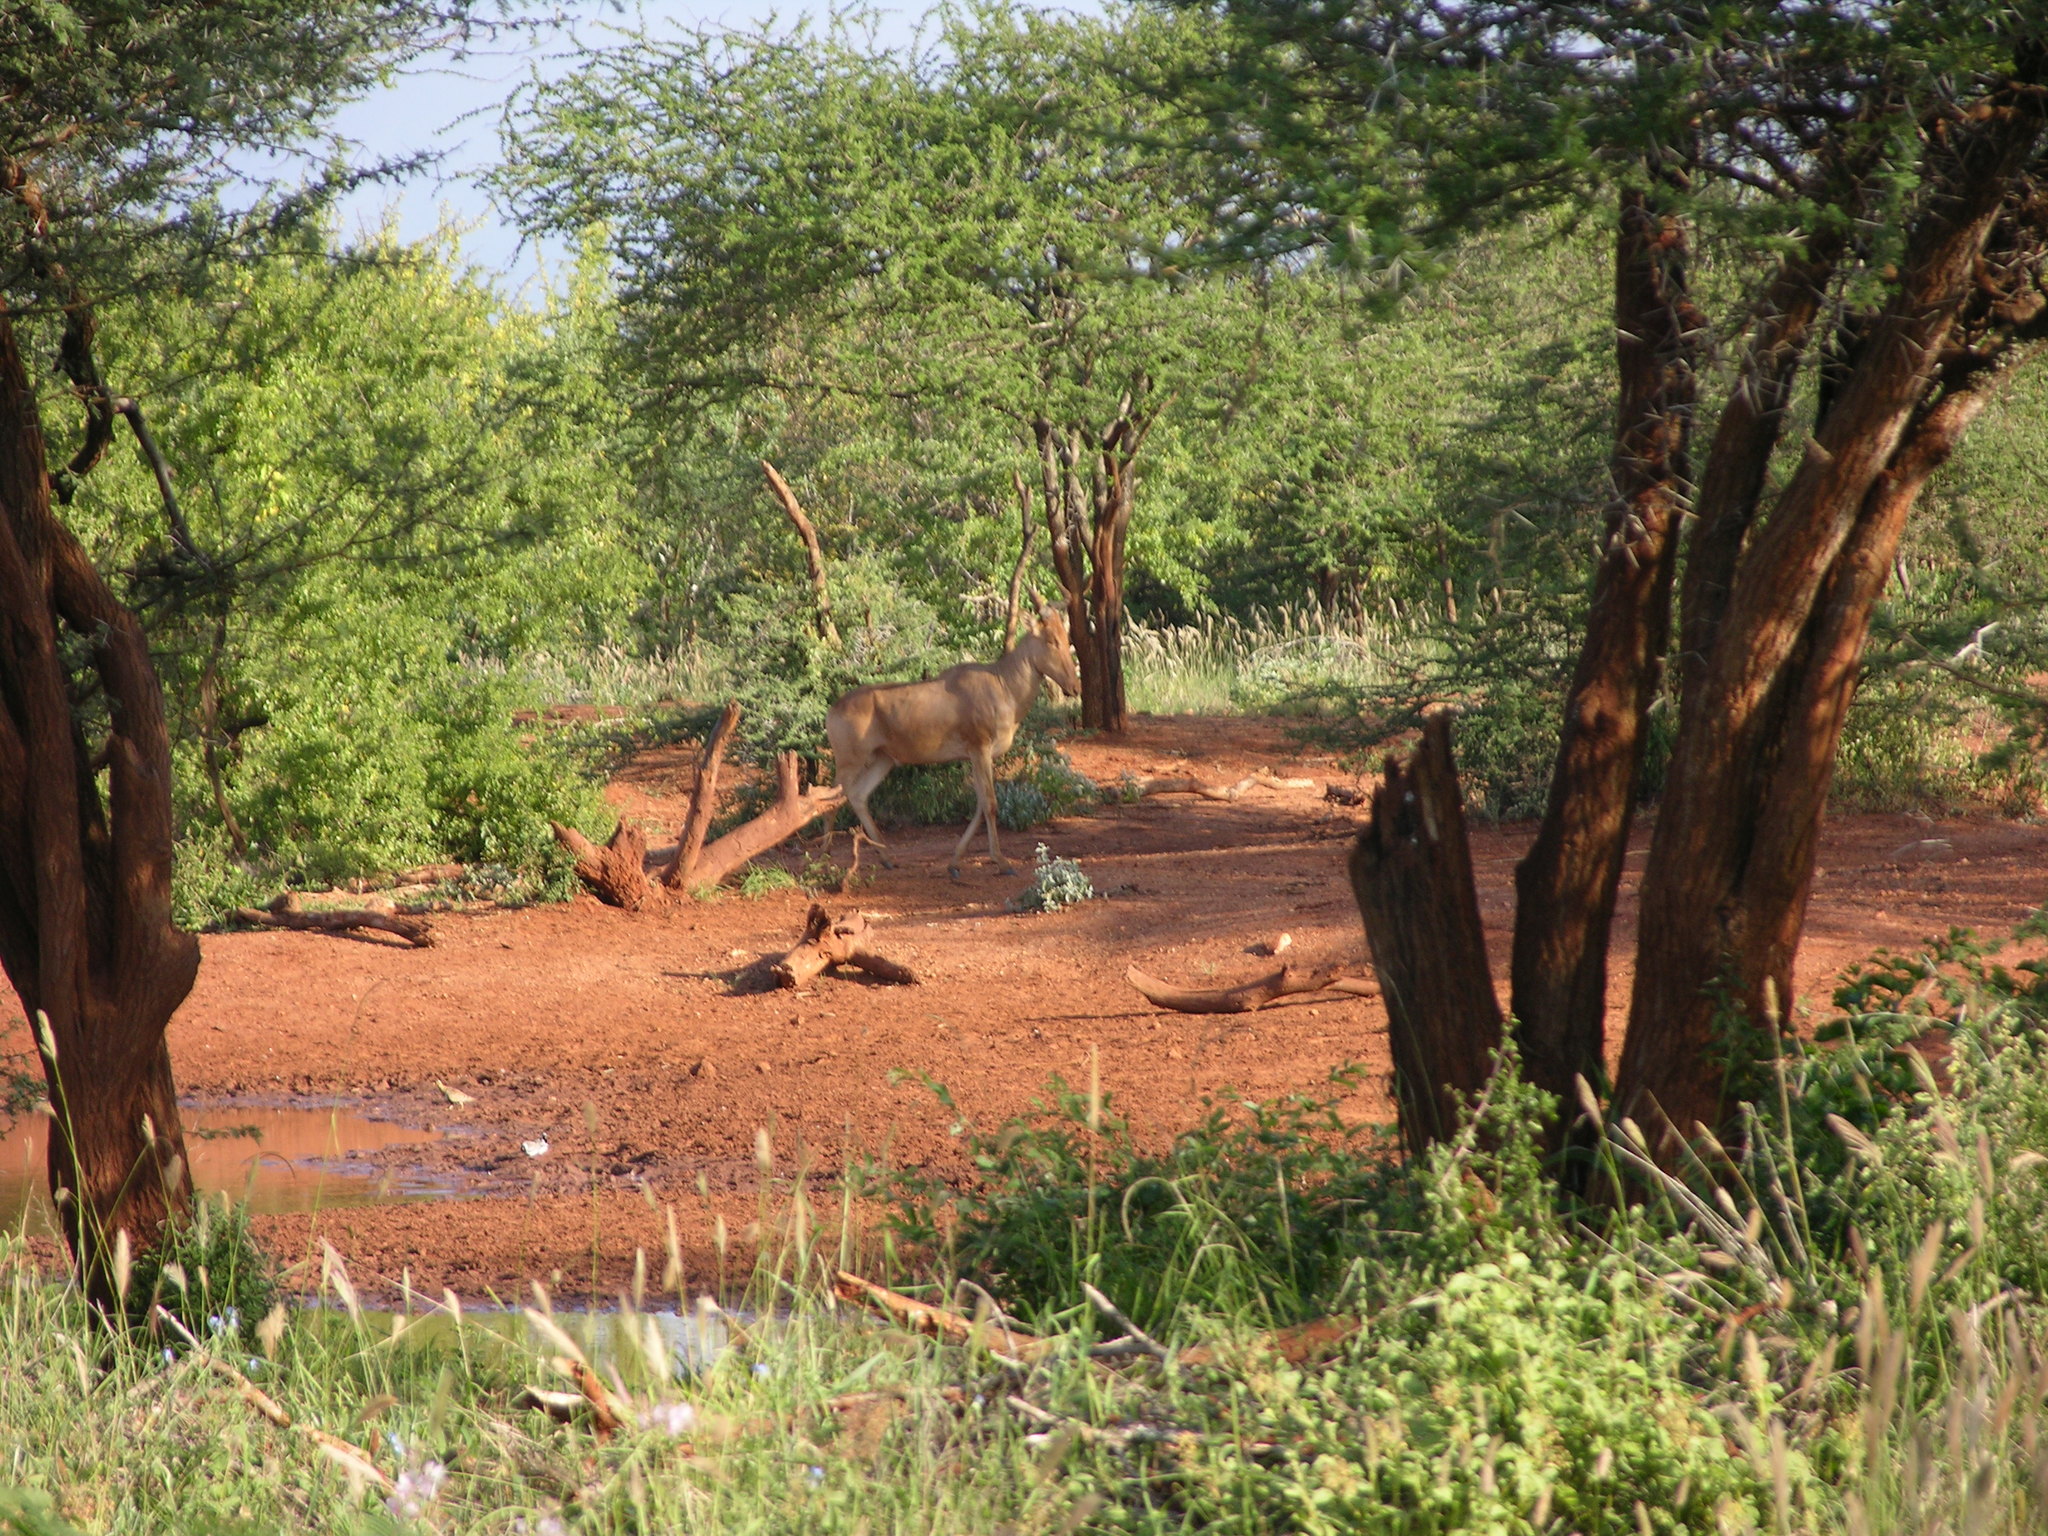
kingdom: Animalia
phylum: Chordata
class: Mammalia
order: Artiodactyla
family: Bovidae
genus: Alcelaphus
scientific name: Alcelaphus buselaphus
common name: Hartebeest
